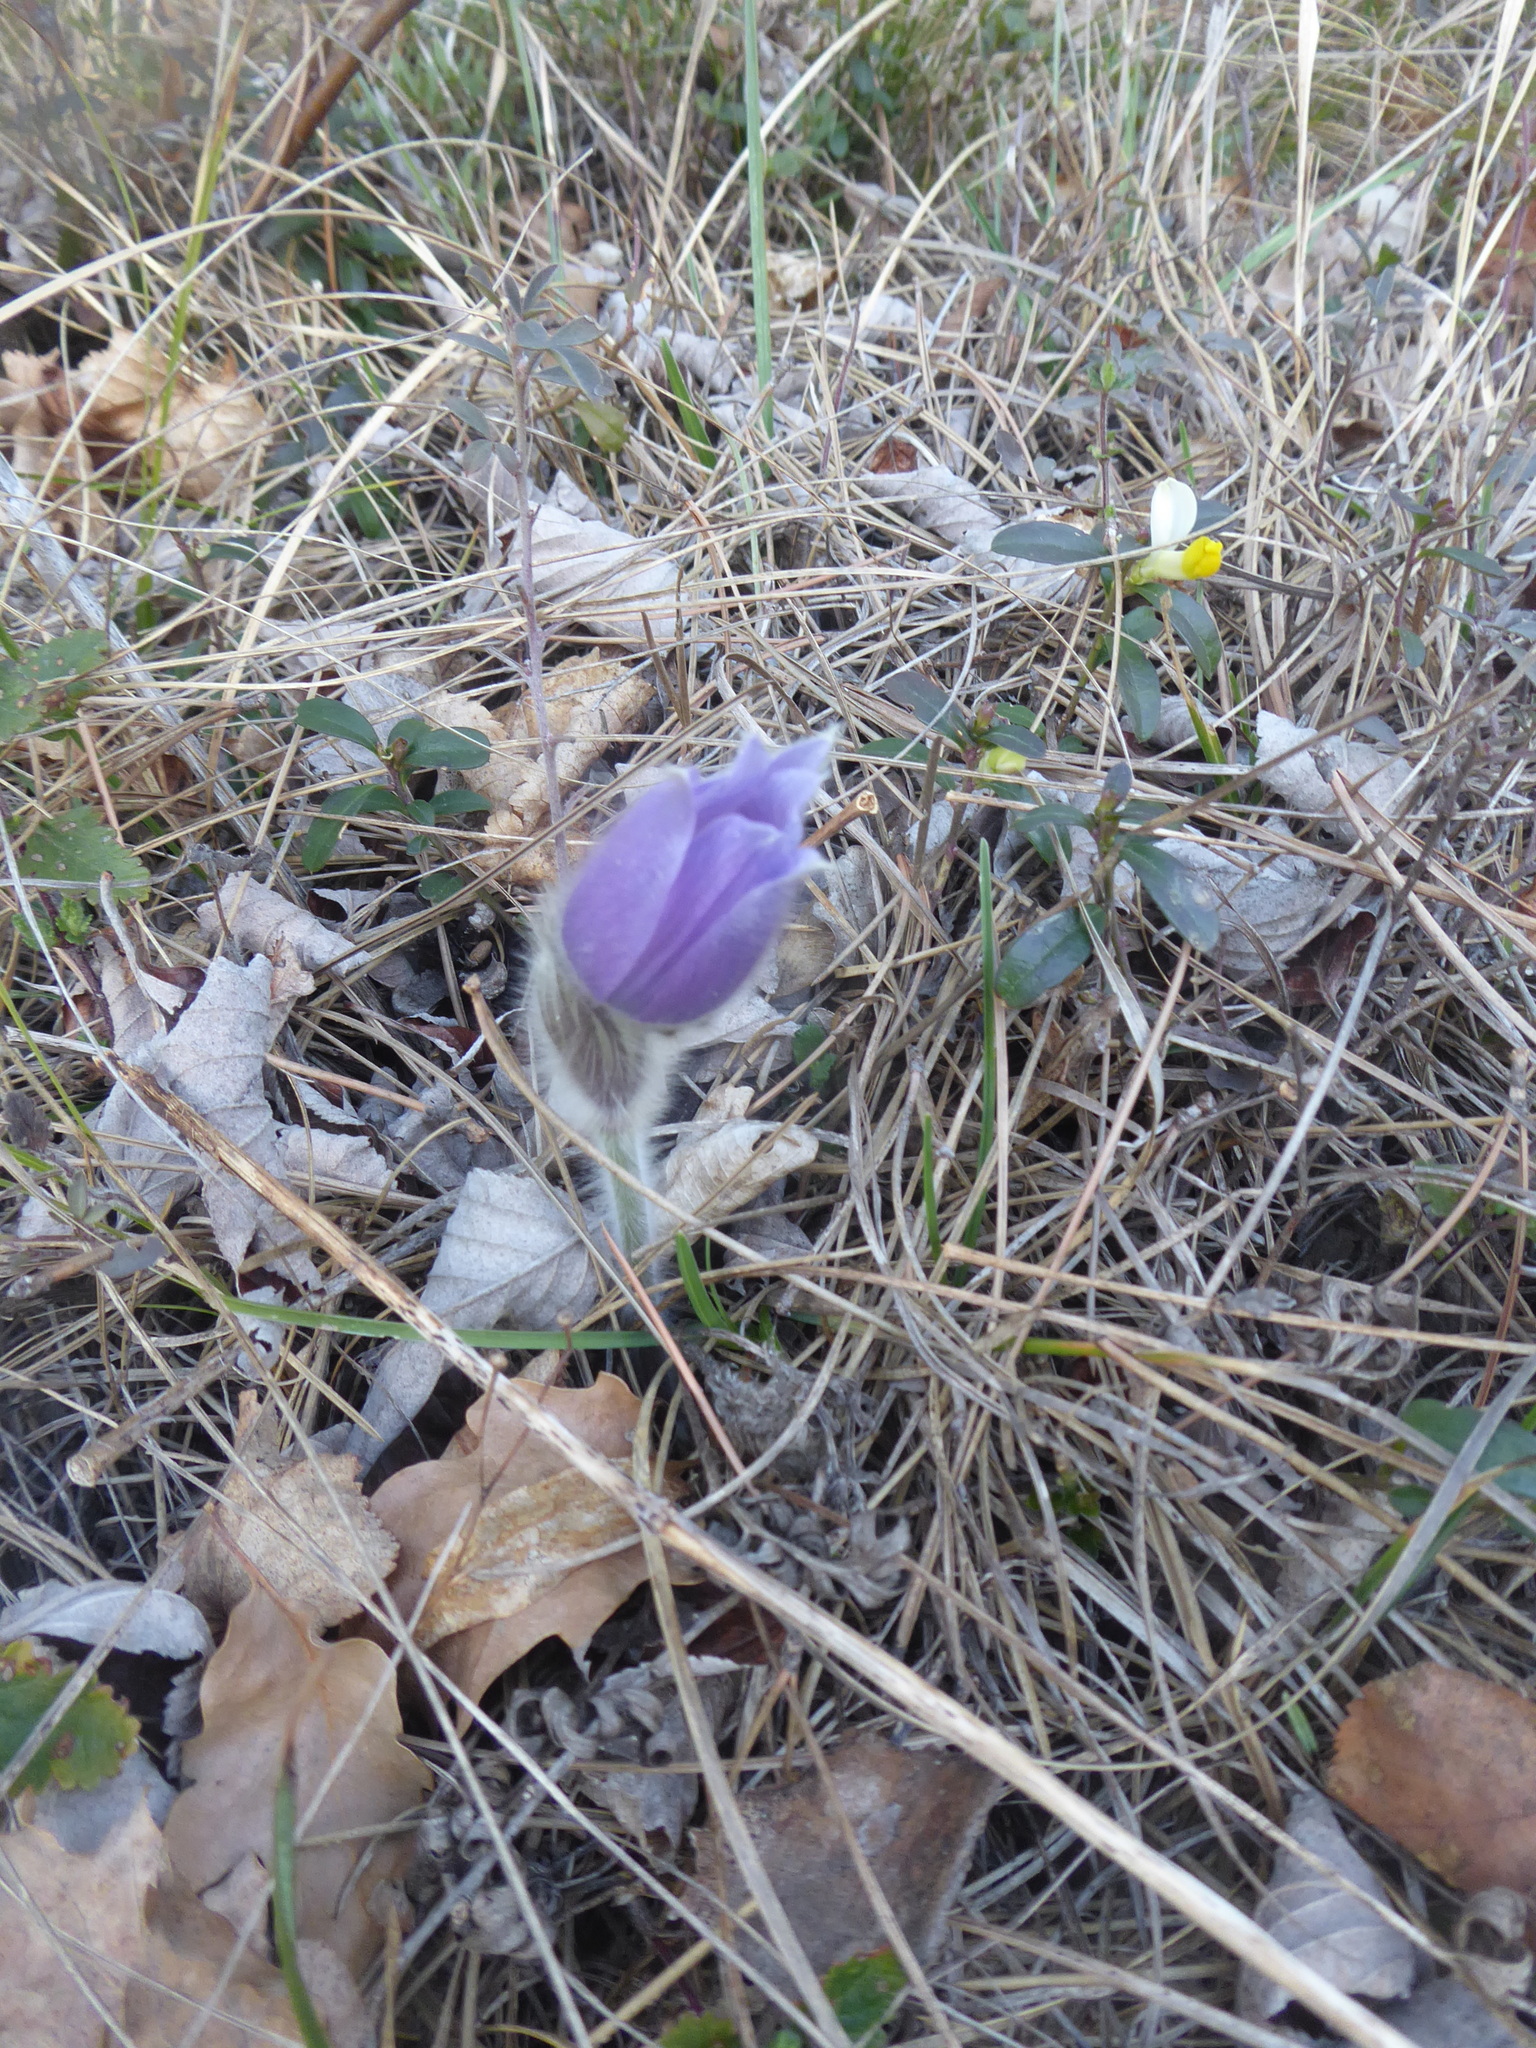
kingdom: Plantae
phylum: Tracheophyta
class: Magnoliopsida
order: Ranunculales
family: Ranunculaceae
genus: Pulsatilla
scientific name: Pulsatilla grandis
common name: Greater pasque flower
